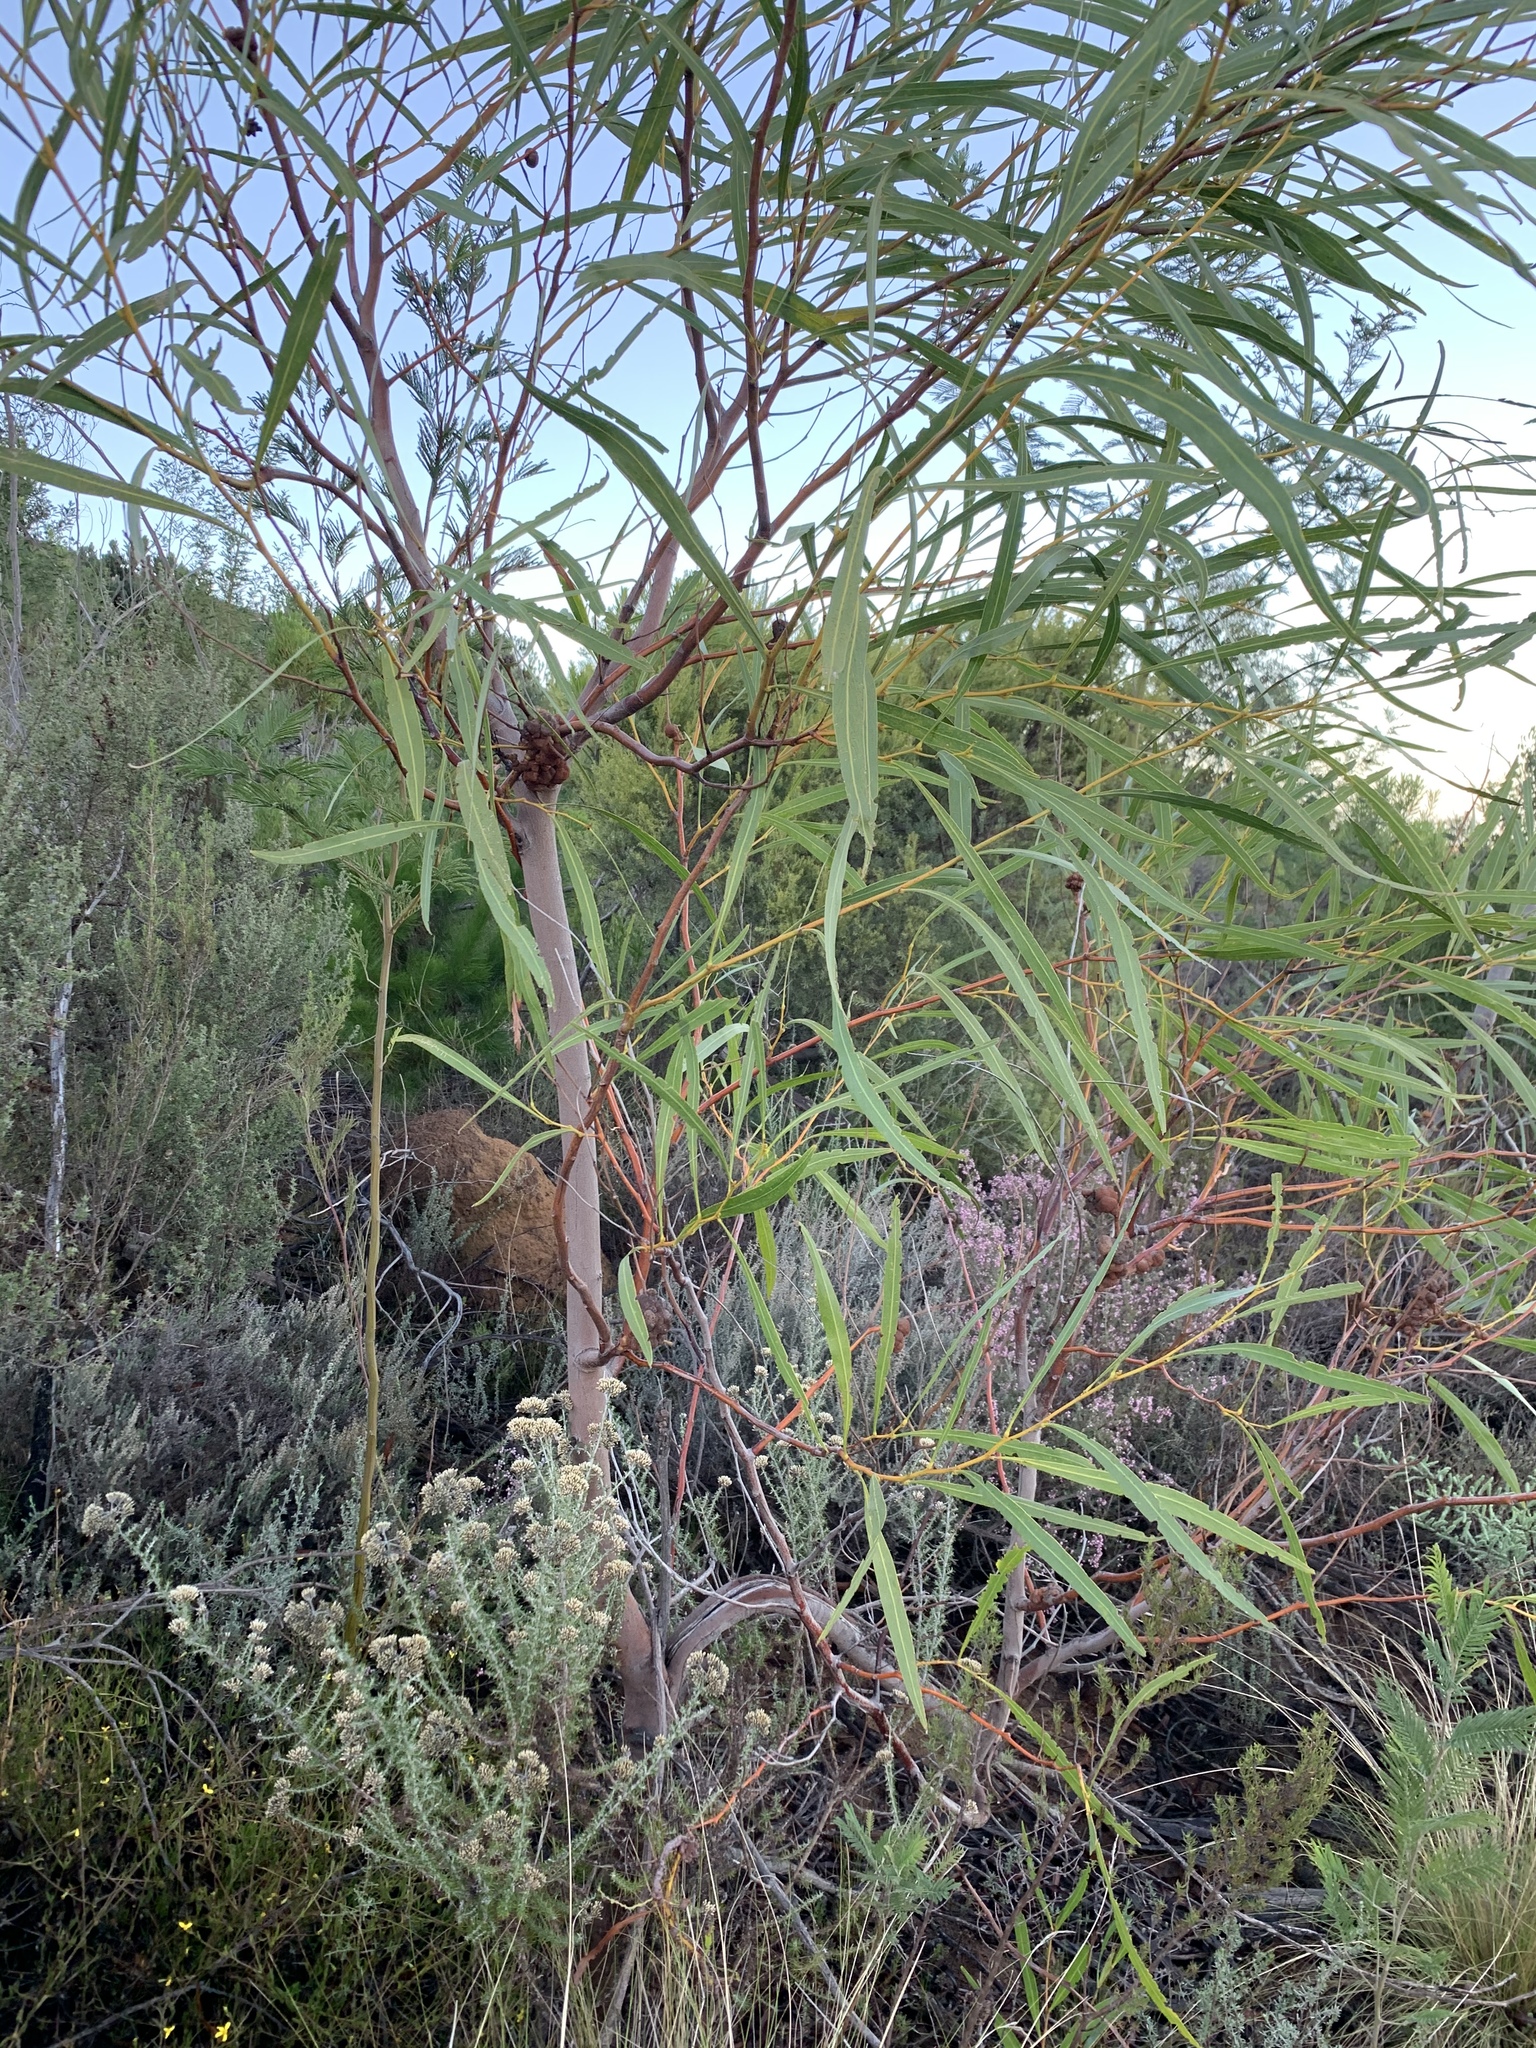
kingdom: Plantae
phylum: Tracheophyta
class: Magnoliopsida
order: Fabales
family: Fabaceae
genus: Acacia
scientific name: Acacia saligna
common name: Orange wattle
